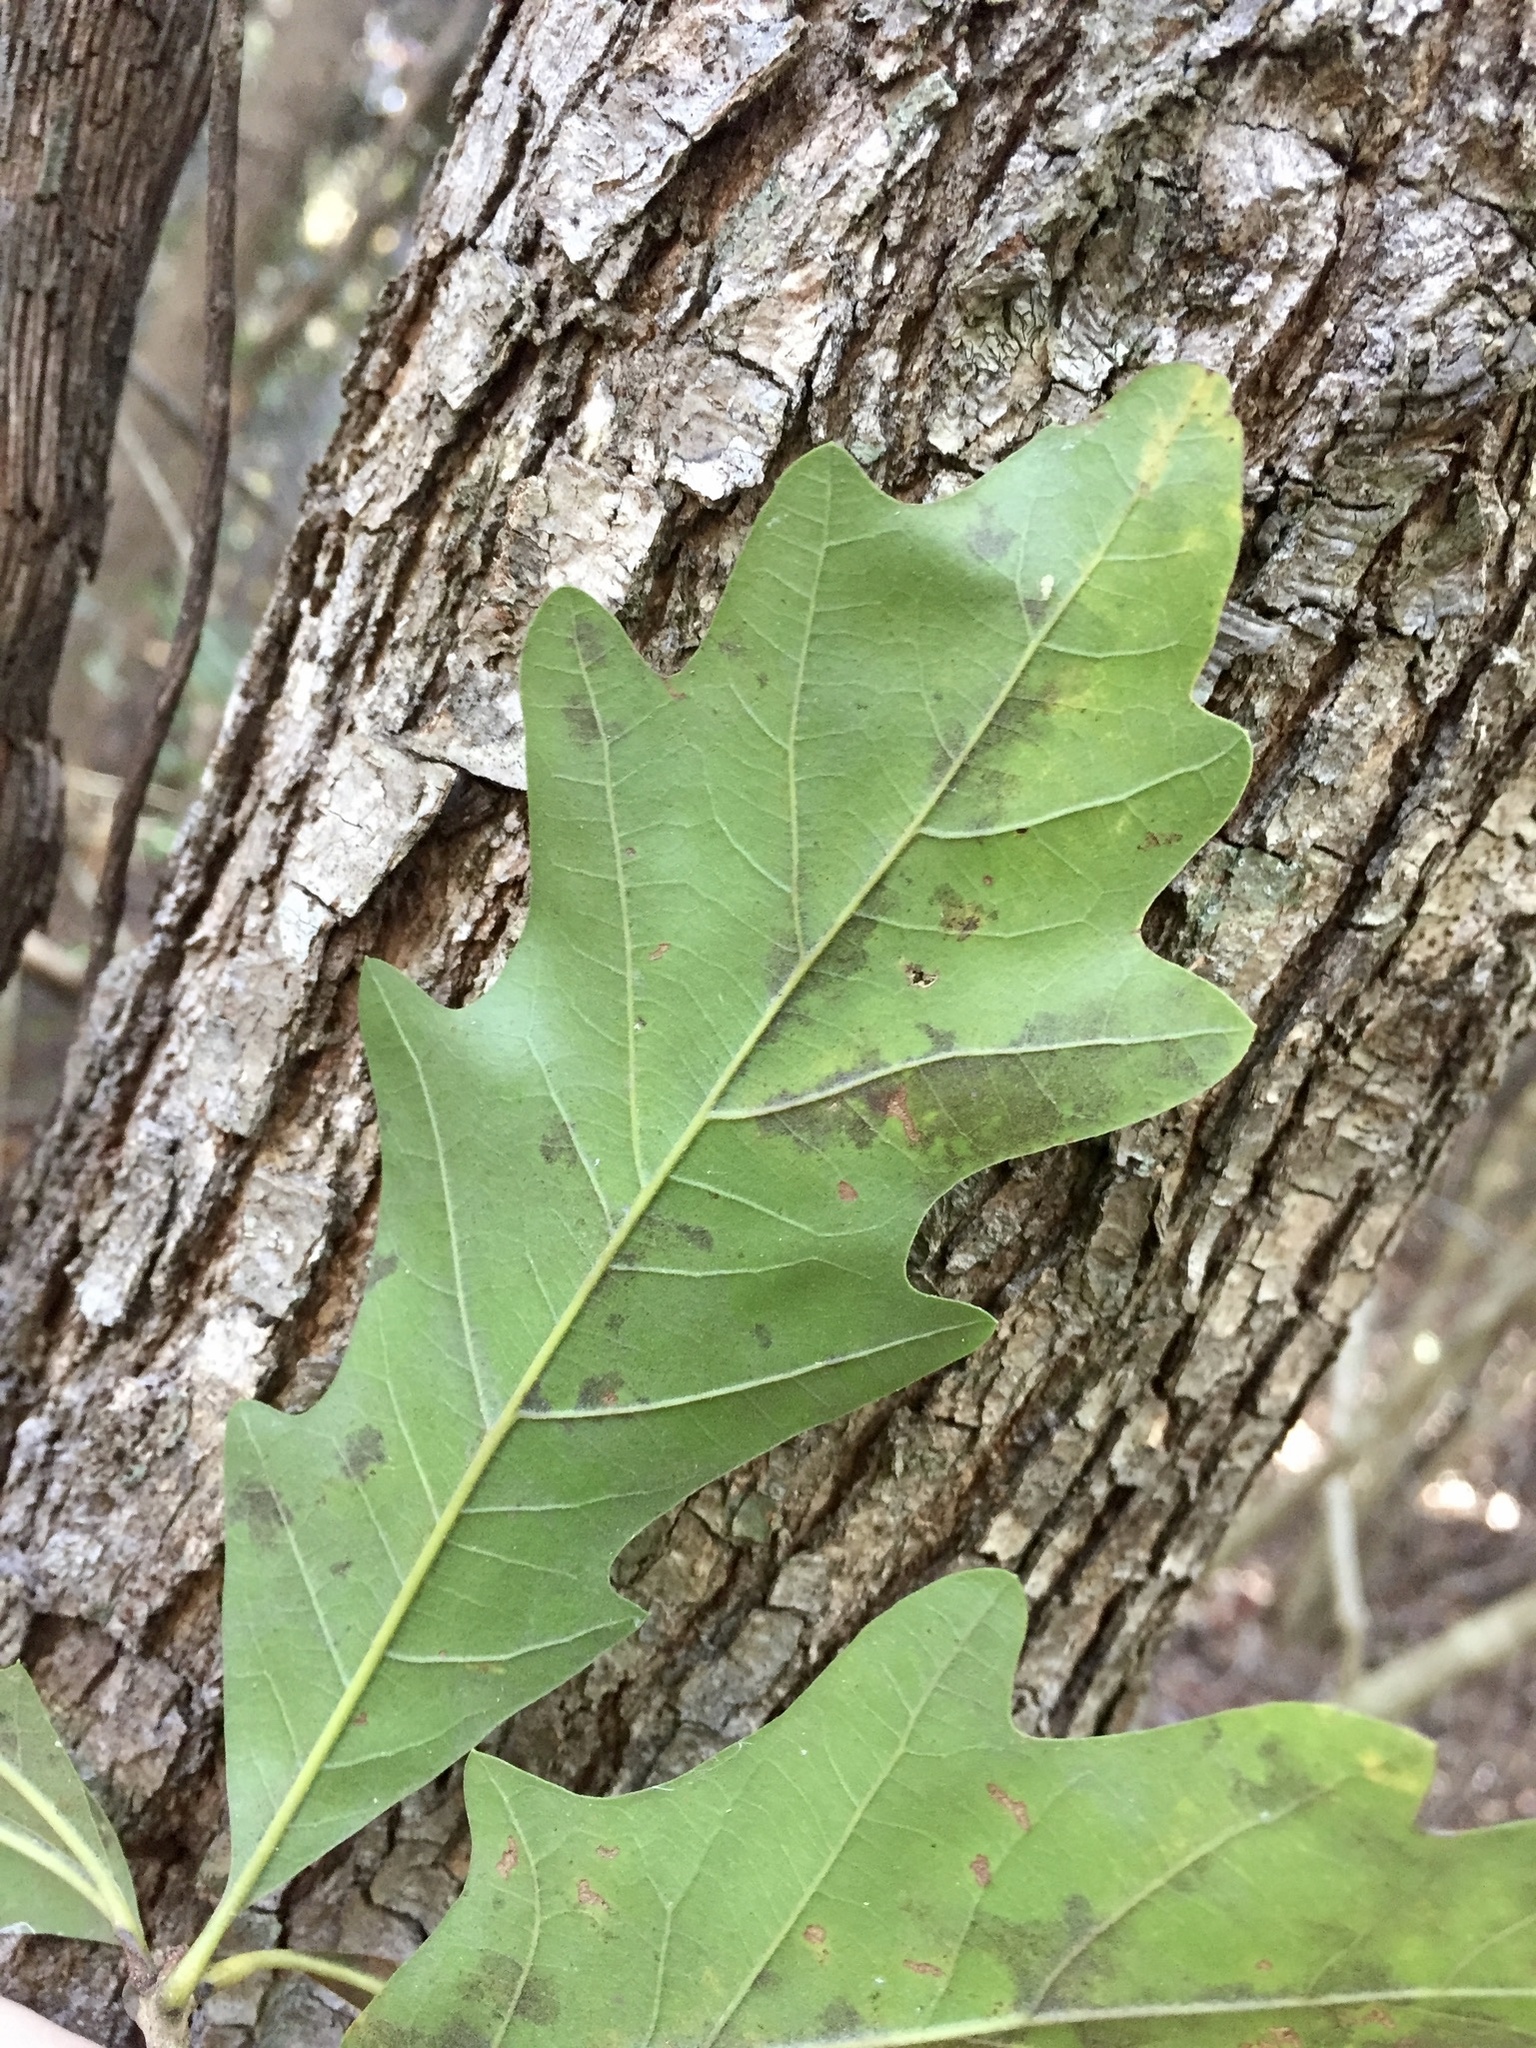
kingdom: Plantae
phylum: Tracheophyta
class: Magnoliopsida
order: Fagales
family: Fagaceae
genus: Quercus
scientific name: Quercus lyrata
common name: Overcup oak
